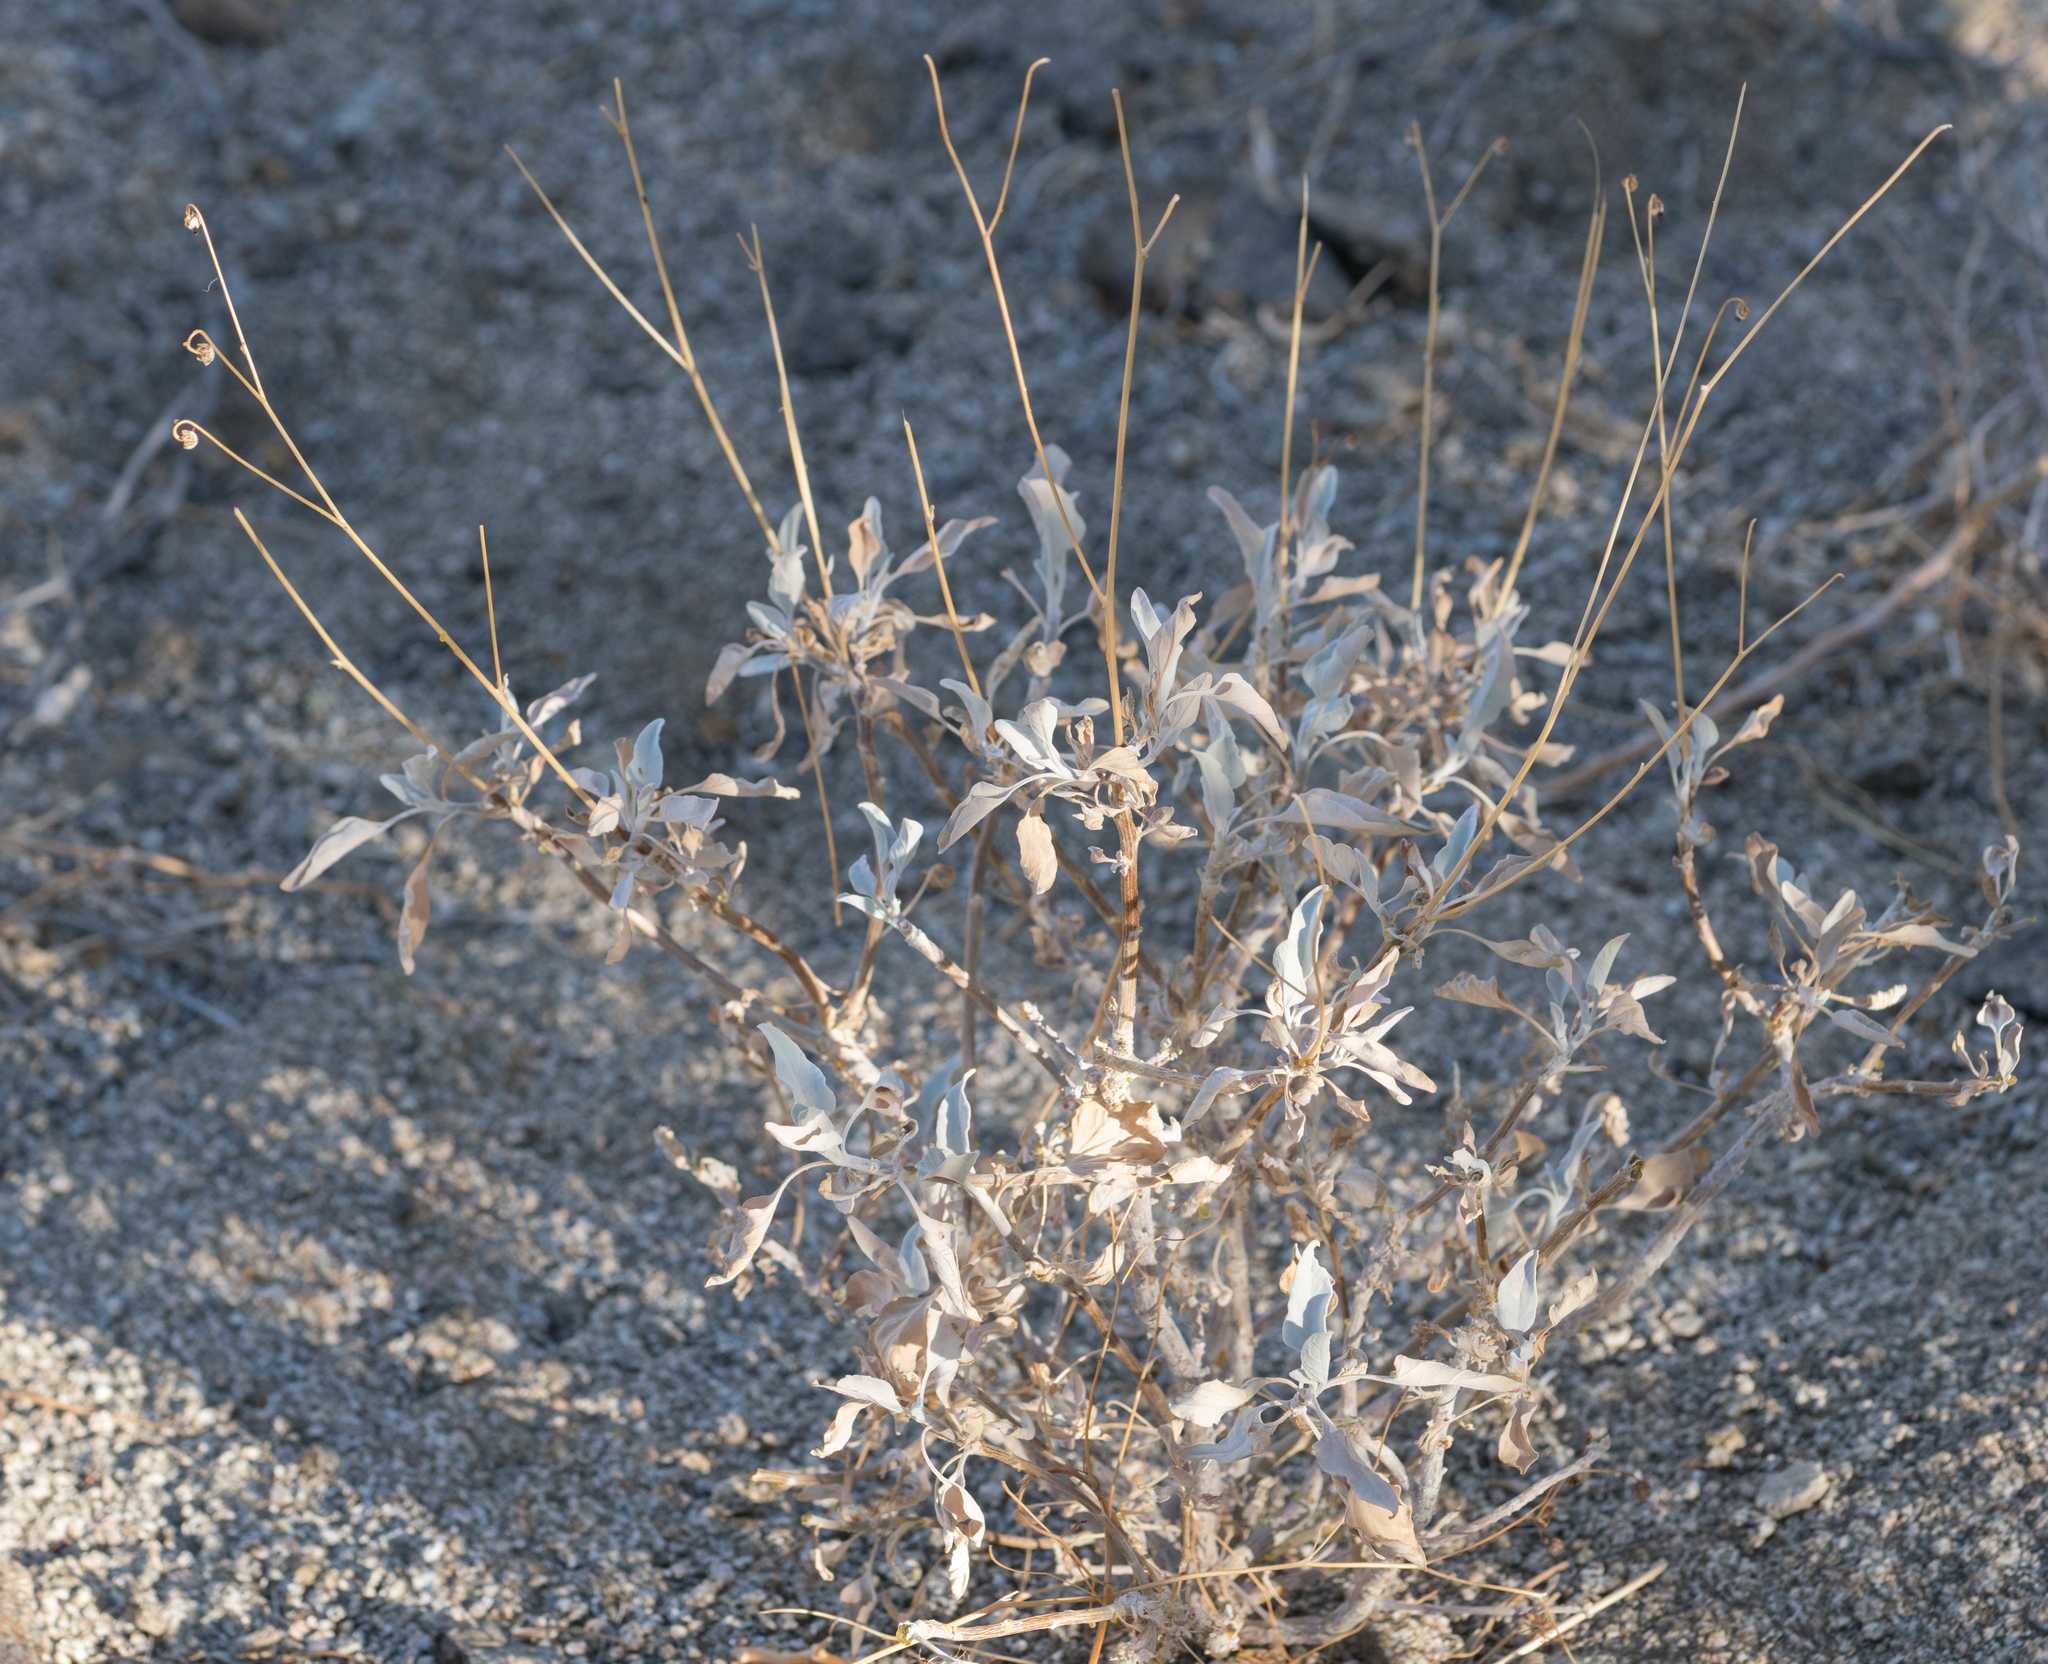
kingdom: Plantae
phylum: Tracheophyta
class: Magnoliopsida
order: Asterales
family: Asteraceae
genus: Encelia
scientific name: Encelia farinosa
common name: Brittlebush
